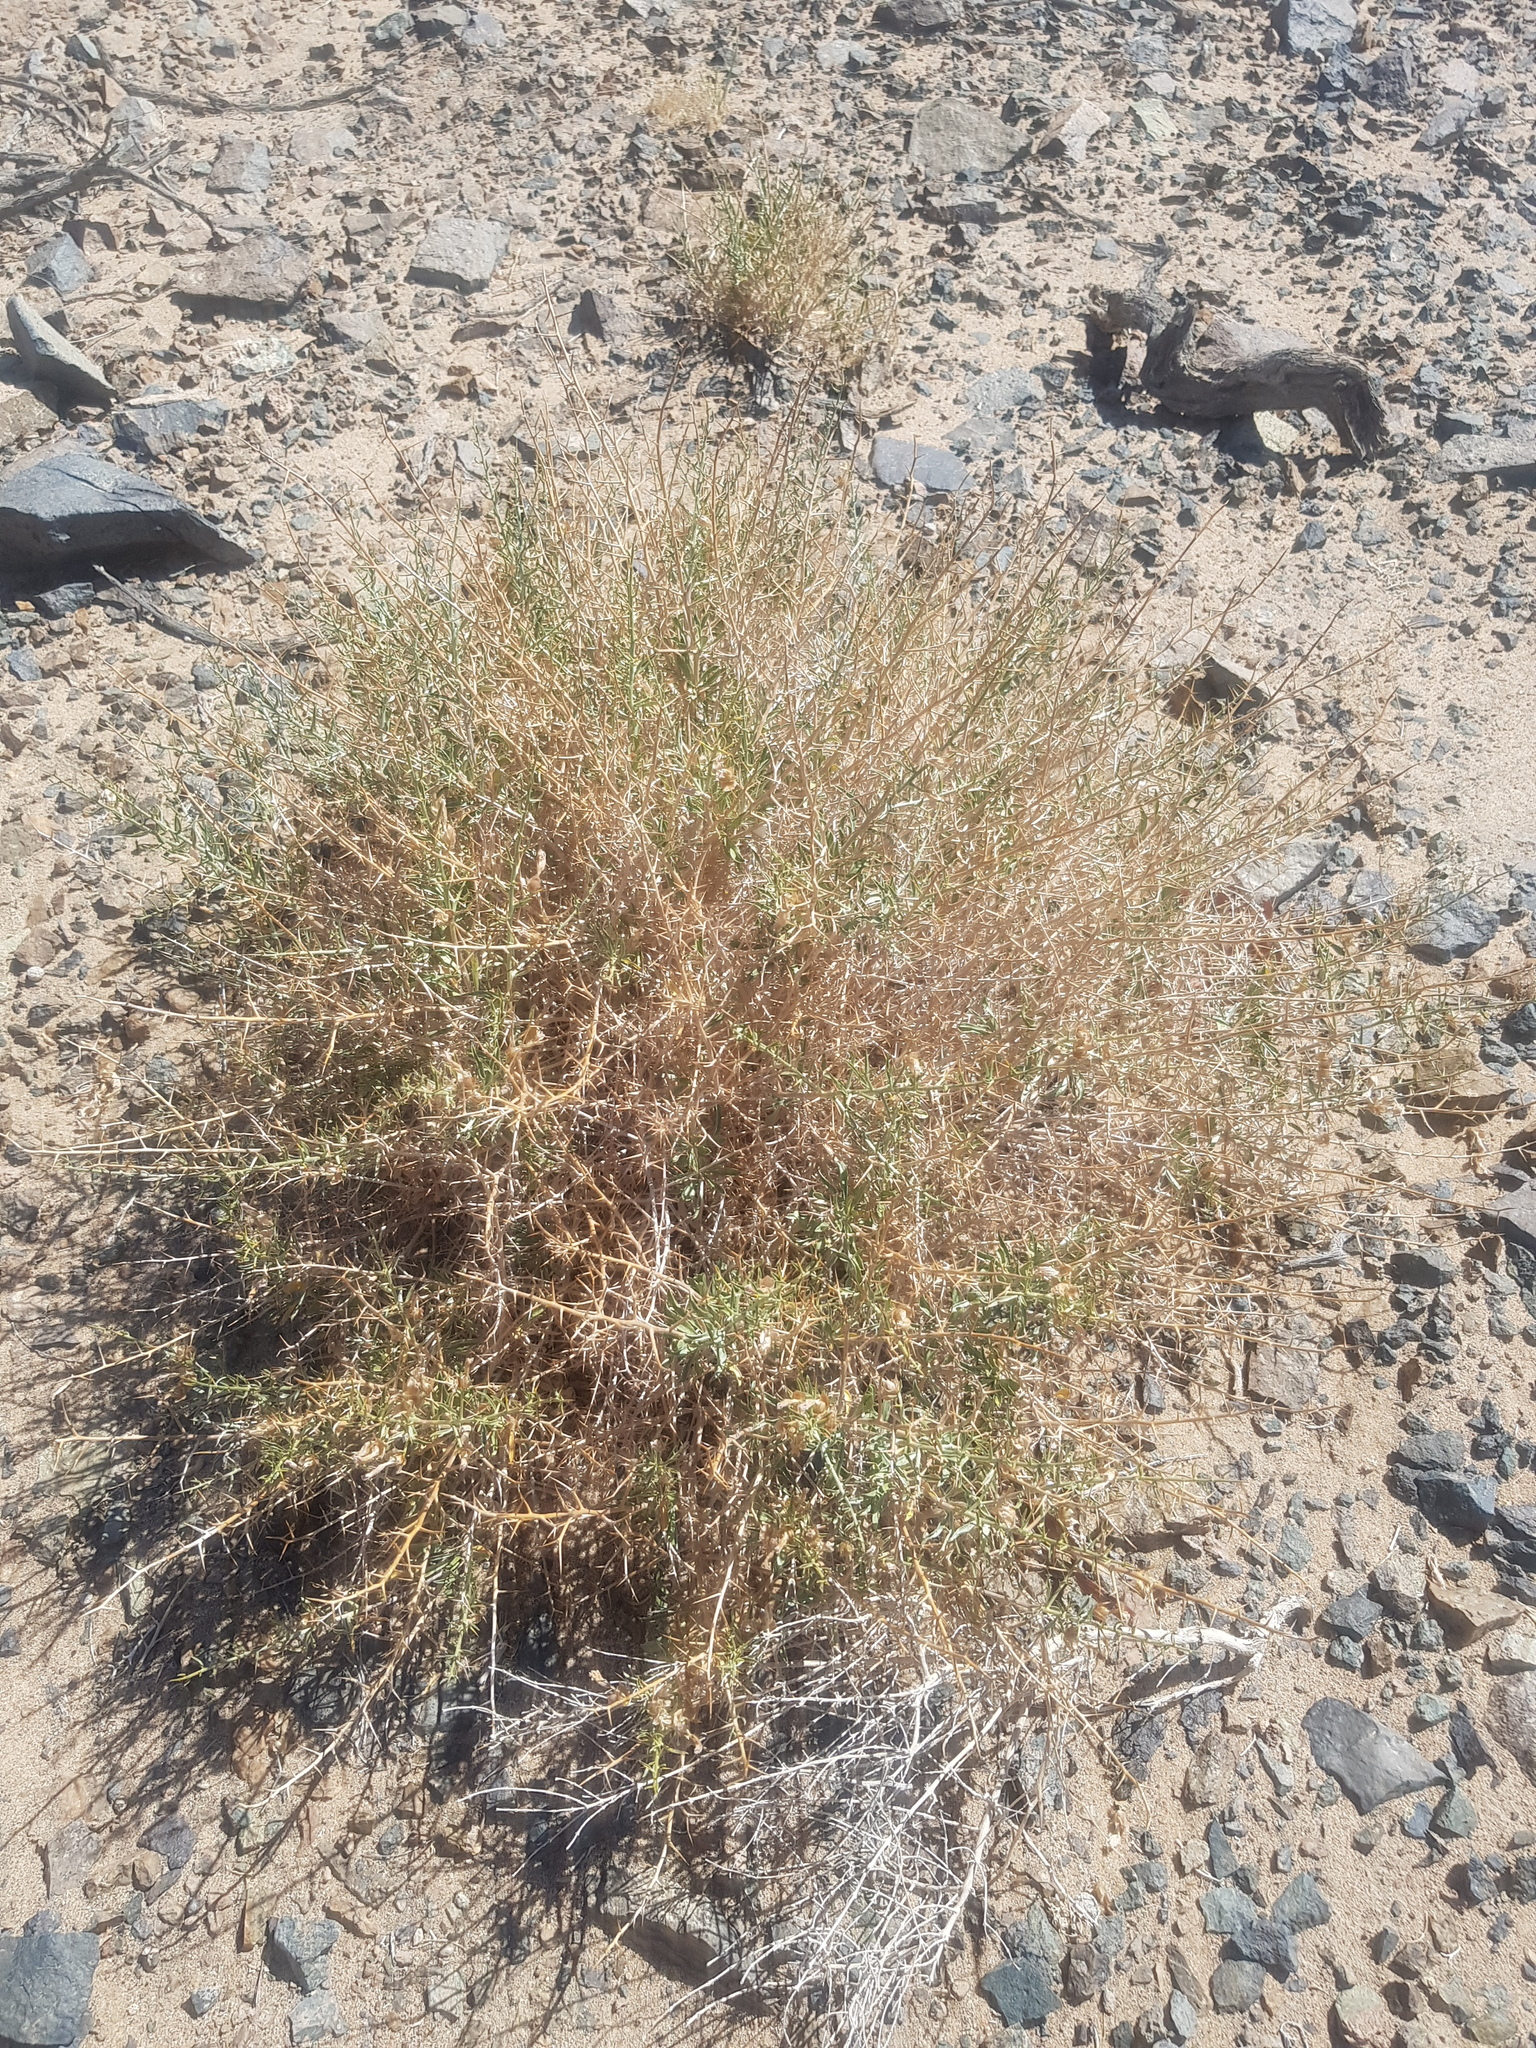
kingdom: Plantae
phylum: Tracheophyta
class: Magnoliopsida
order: Solanales
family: Convolvulaceae
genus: Convolvulus
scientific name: Convolvulus gortschakovii
